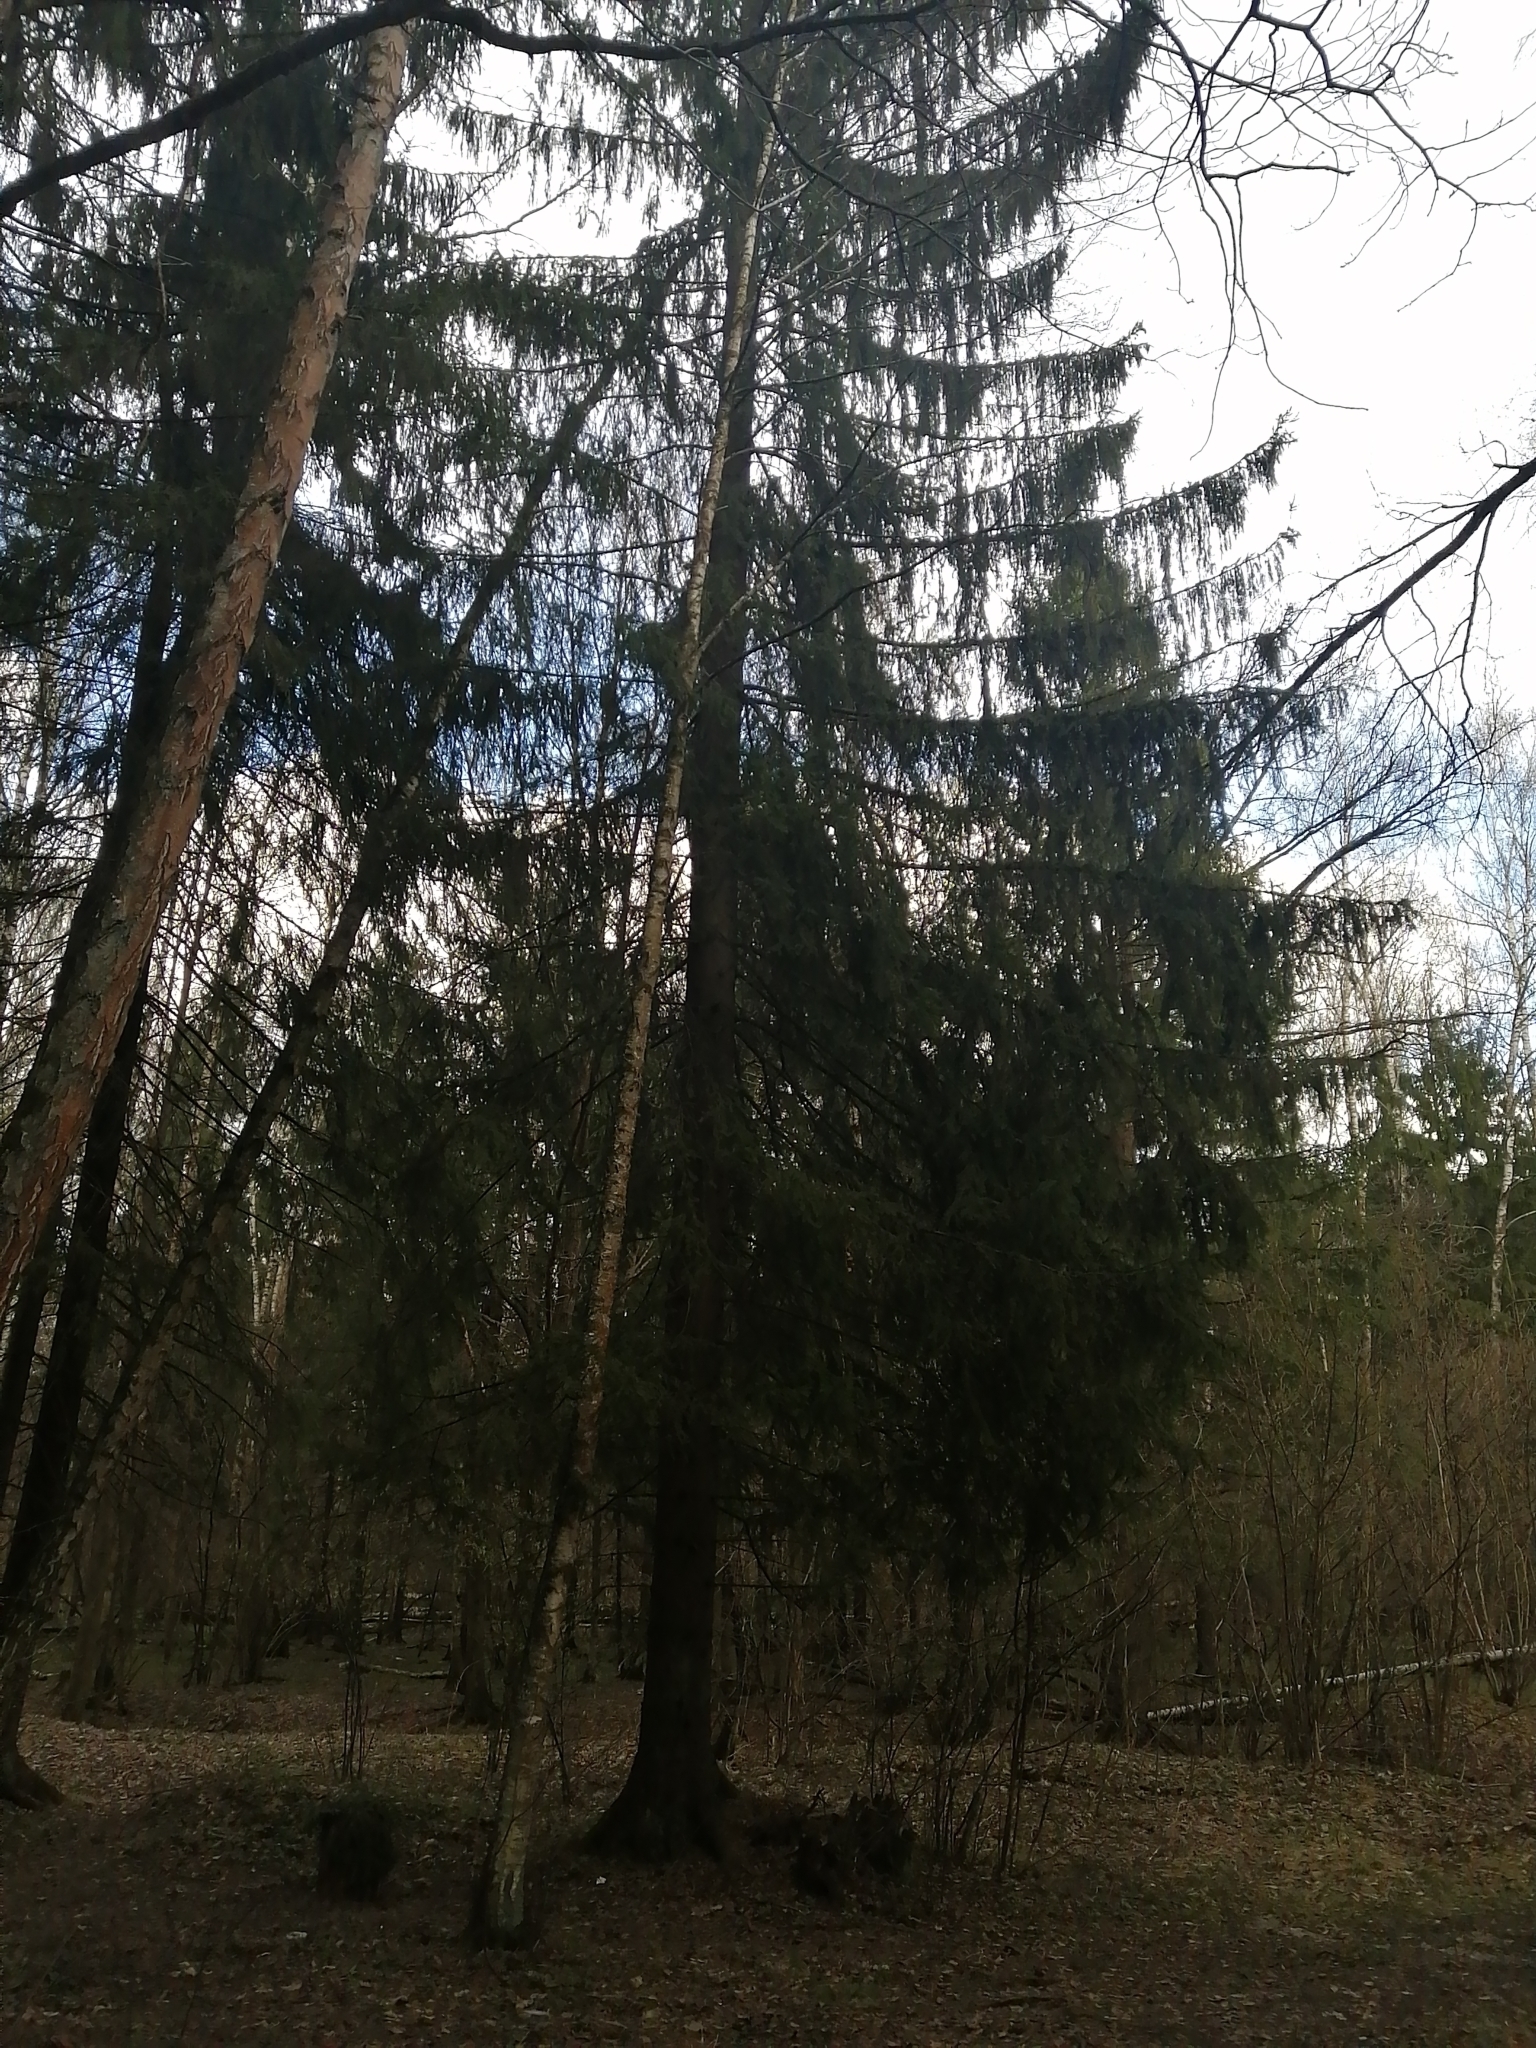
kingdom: Plantae
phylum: Tracheophyta
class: Pinopsida
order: Pinales
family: Pinaceae
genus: Picea
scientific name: Picea abies
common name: Norway spruce
